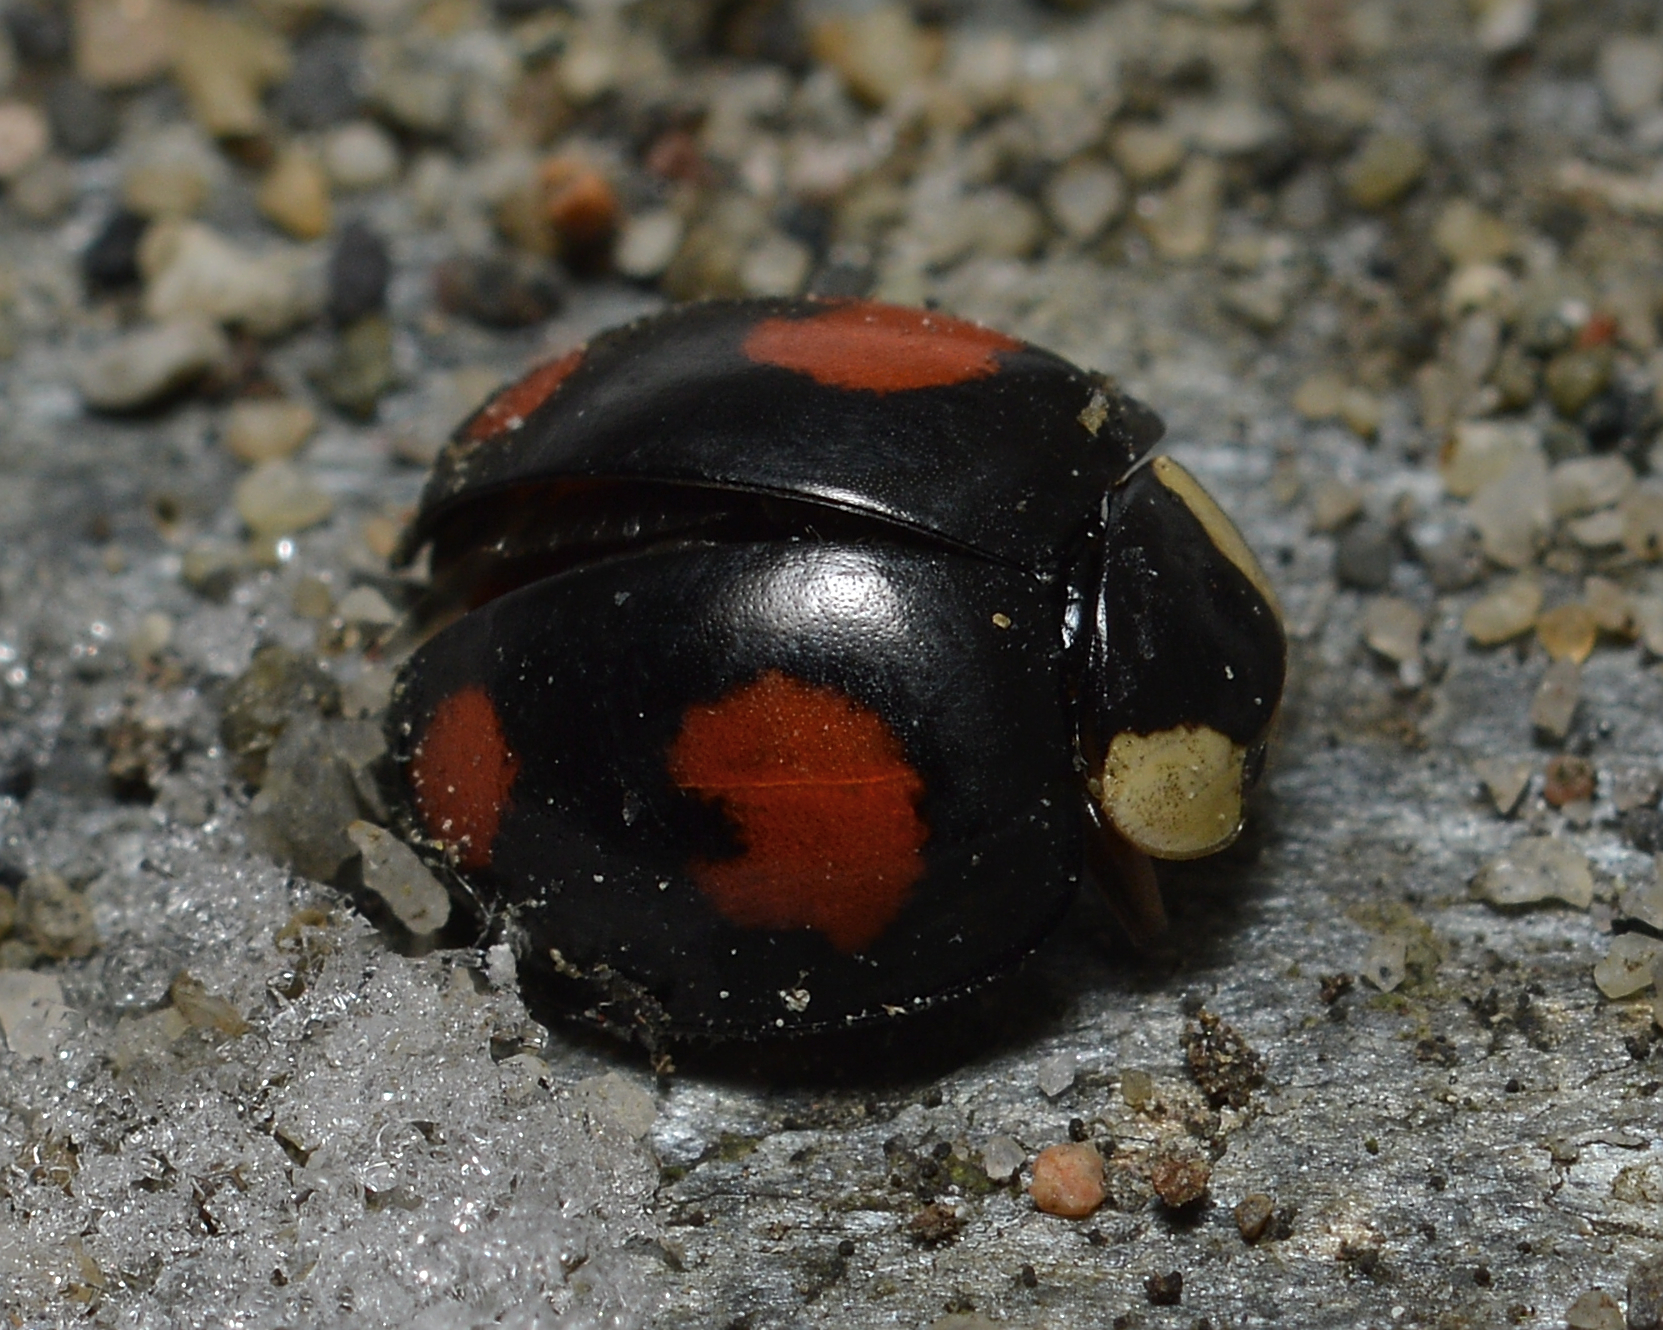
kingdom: Animalia
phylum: Arthropoda
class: Insecta
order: Coleoptera
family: Coccinellidae
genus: Harmonia
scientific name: Harmonia axyridis
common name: Harlequin ladybird
